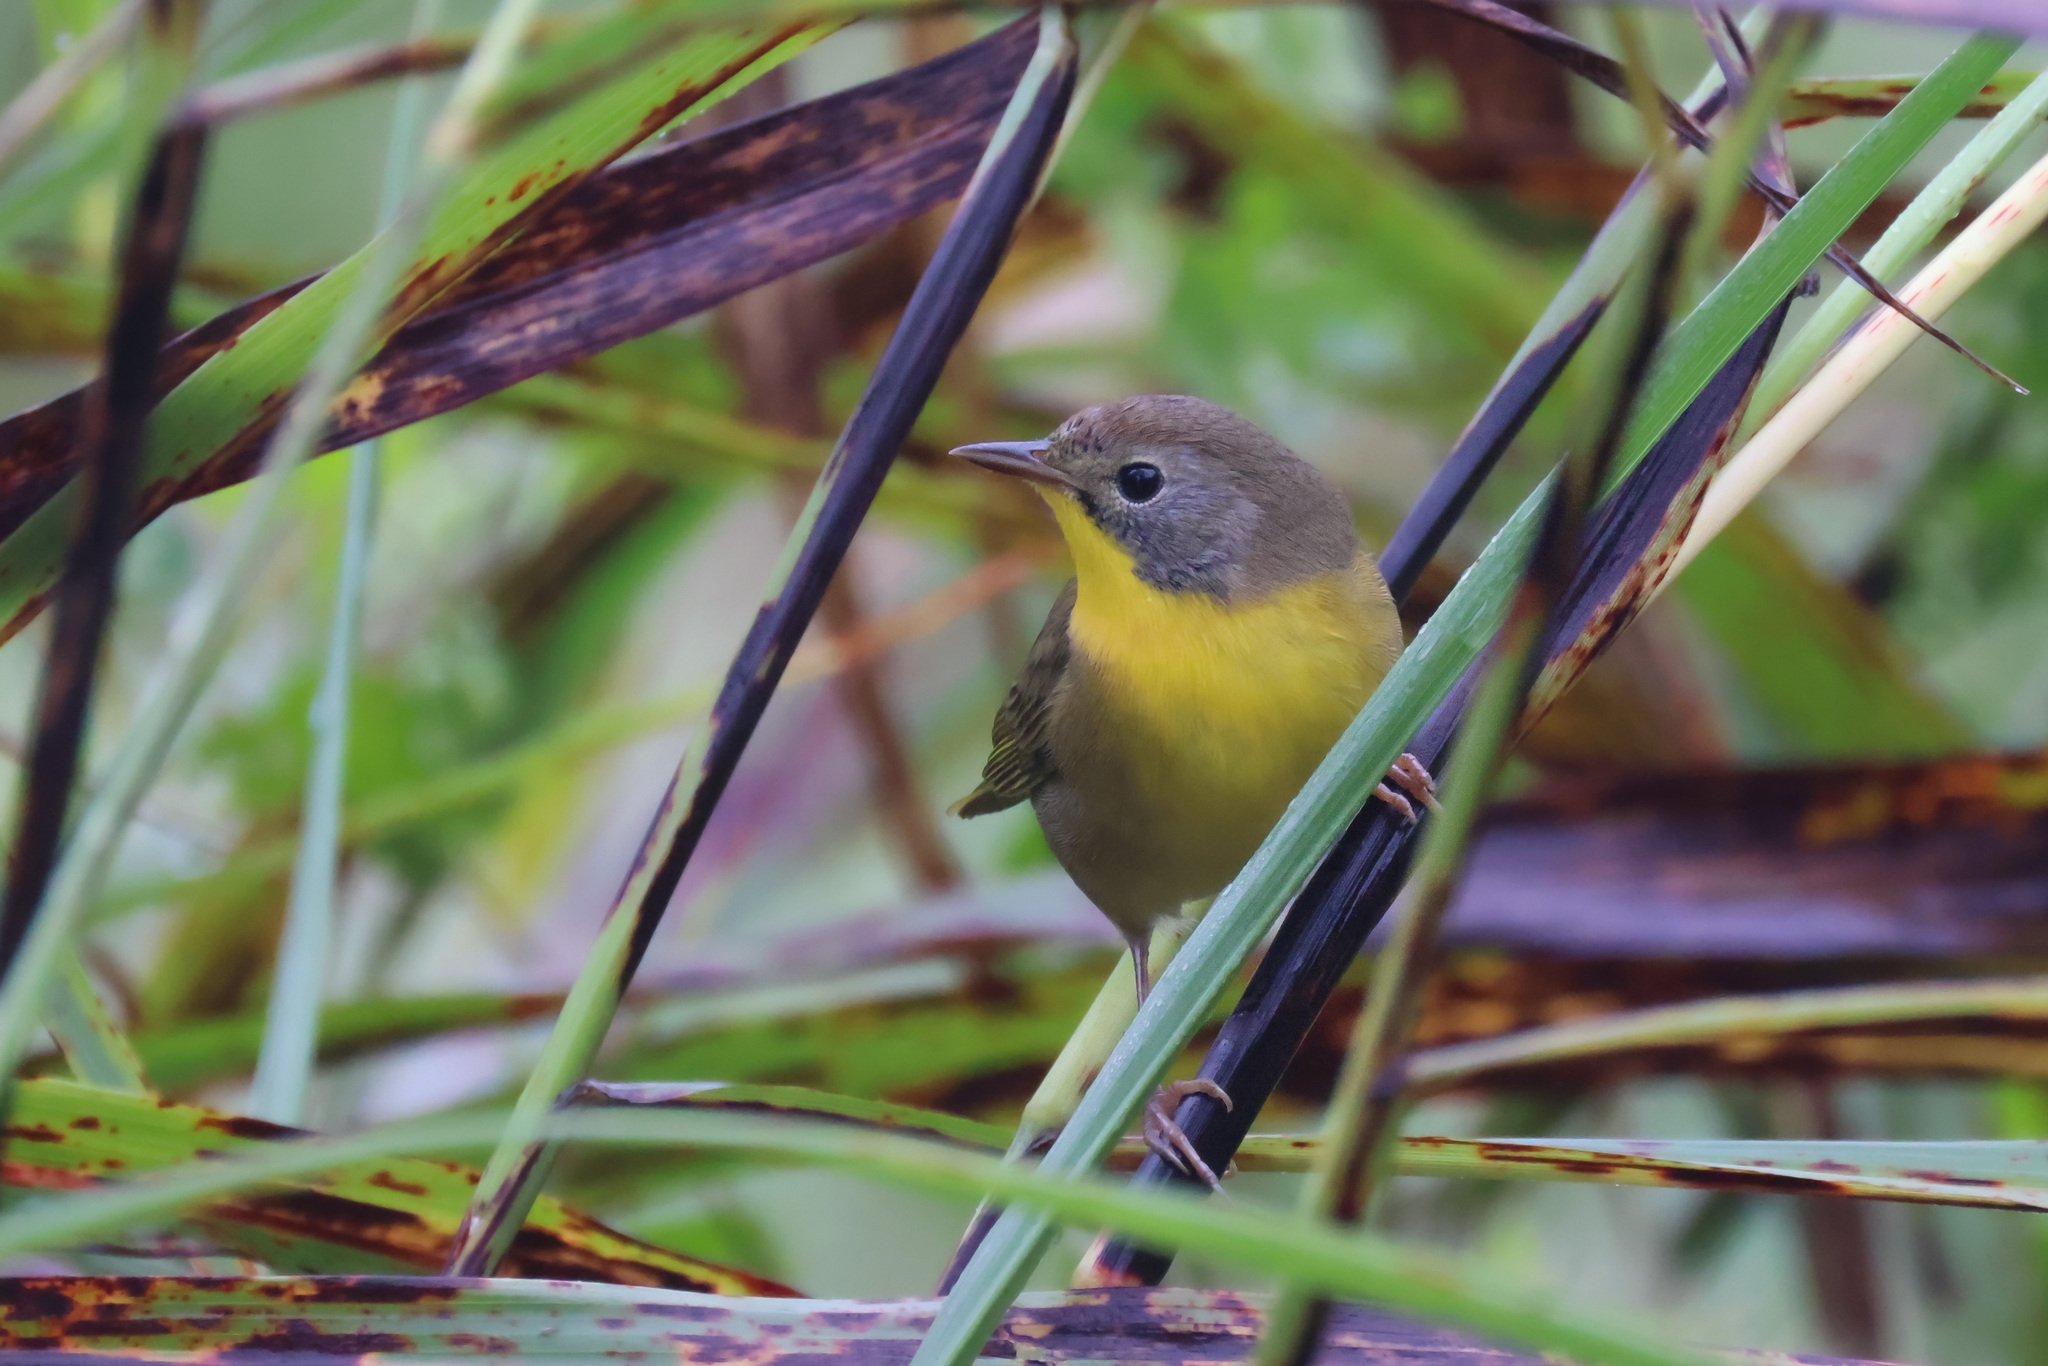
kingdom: Animalia
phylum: Chordata
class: Aves
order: Passeriformes
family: Parulidae
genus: Geothlypis
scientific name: Geothlypis trichas
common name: Common yellowthroat
